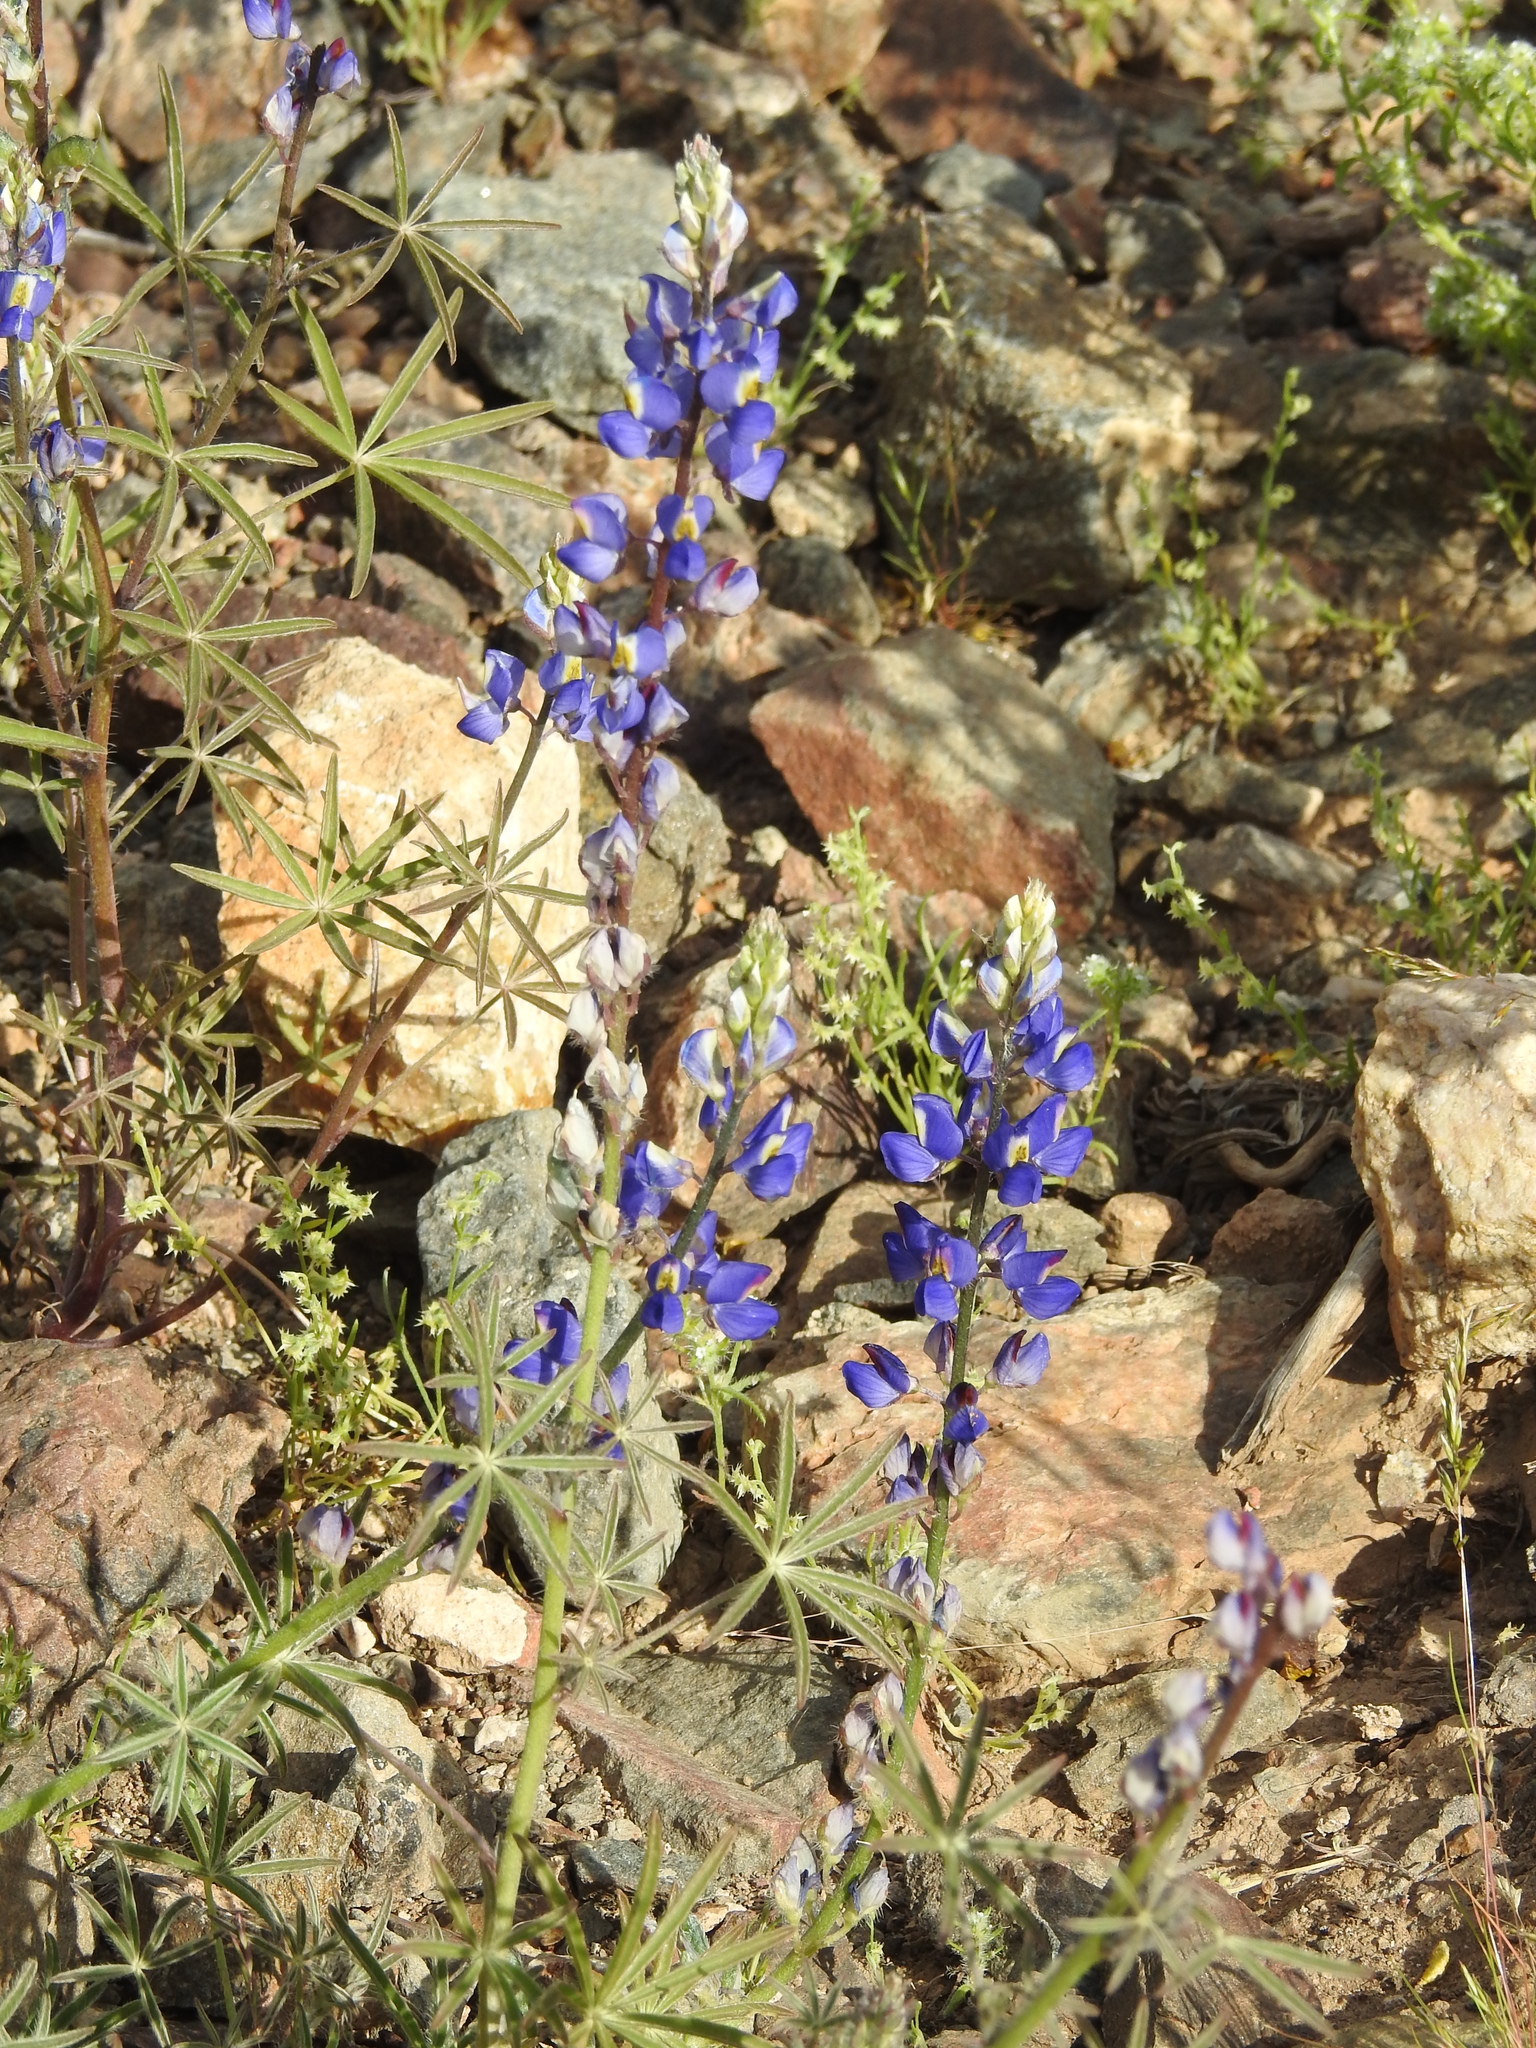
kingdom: Plantae
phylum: Tracheophyta
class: Magnoliopsida
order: Fabales
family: Fabaceae
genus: Lupinus
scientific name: Lupinus sparsiflorus
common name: Coulter's lupine
